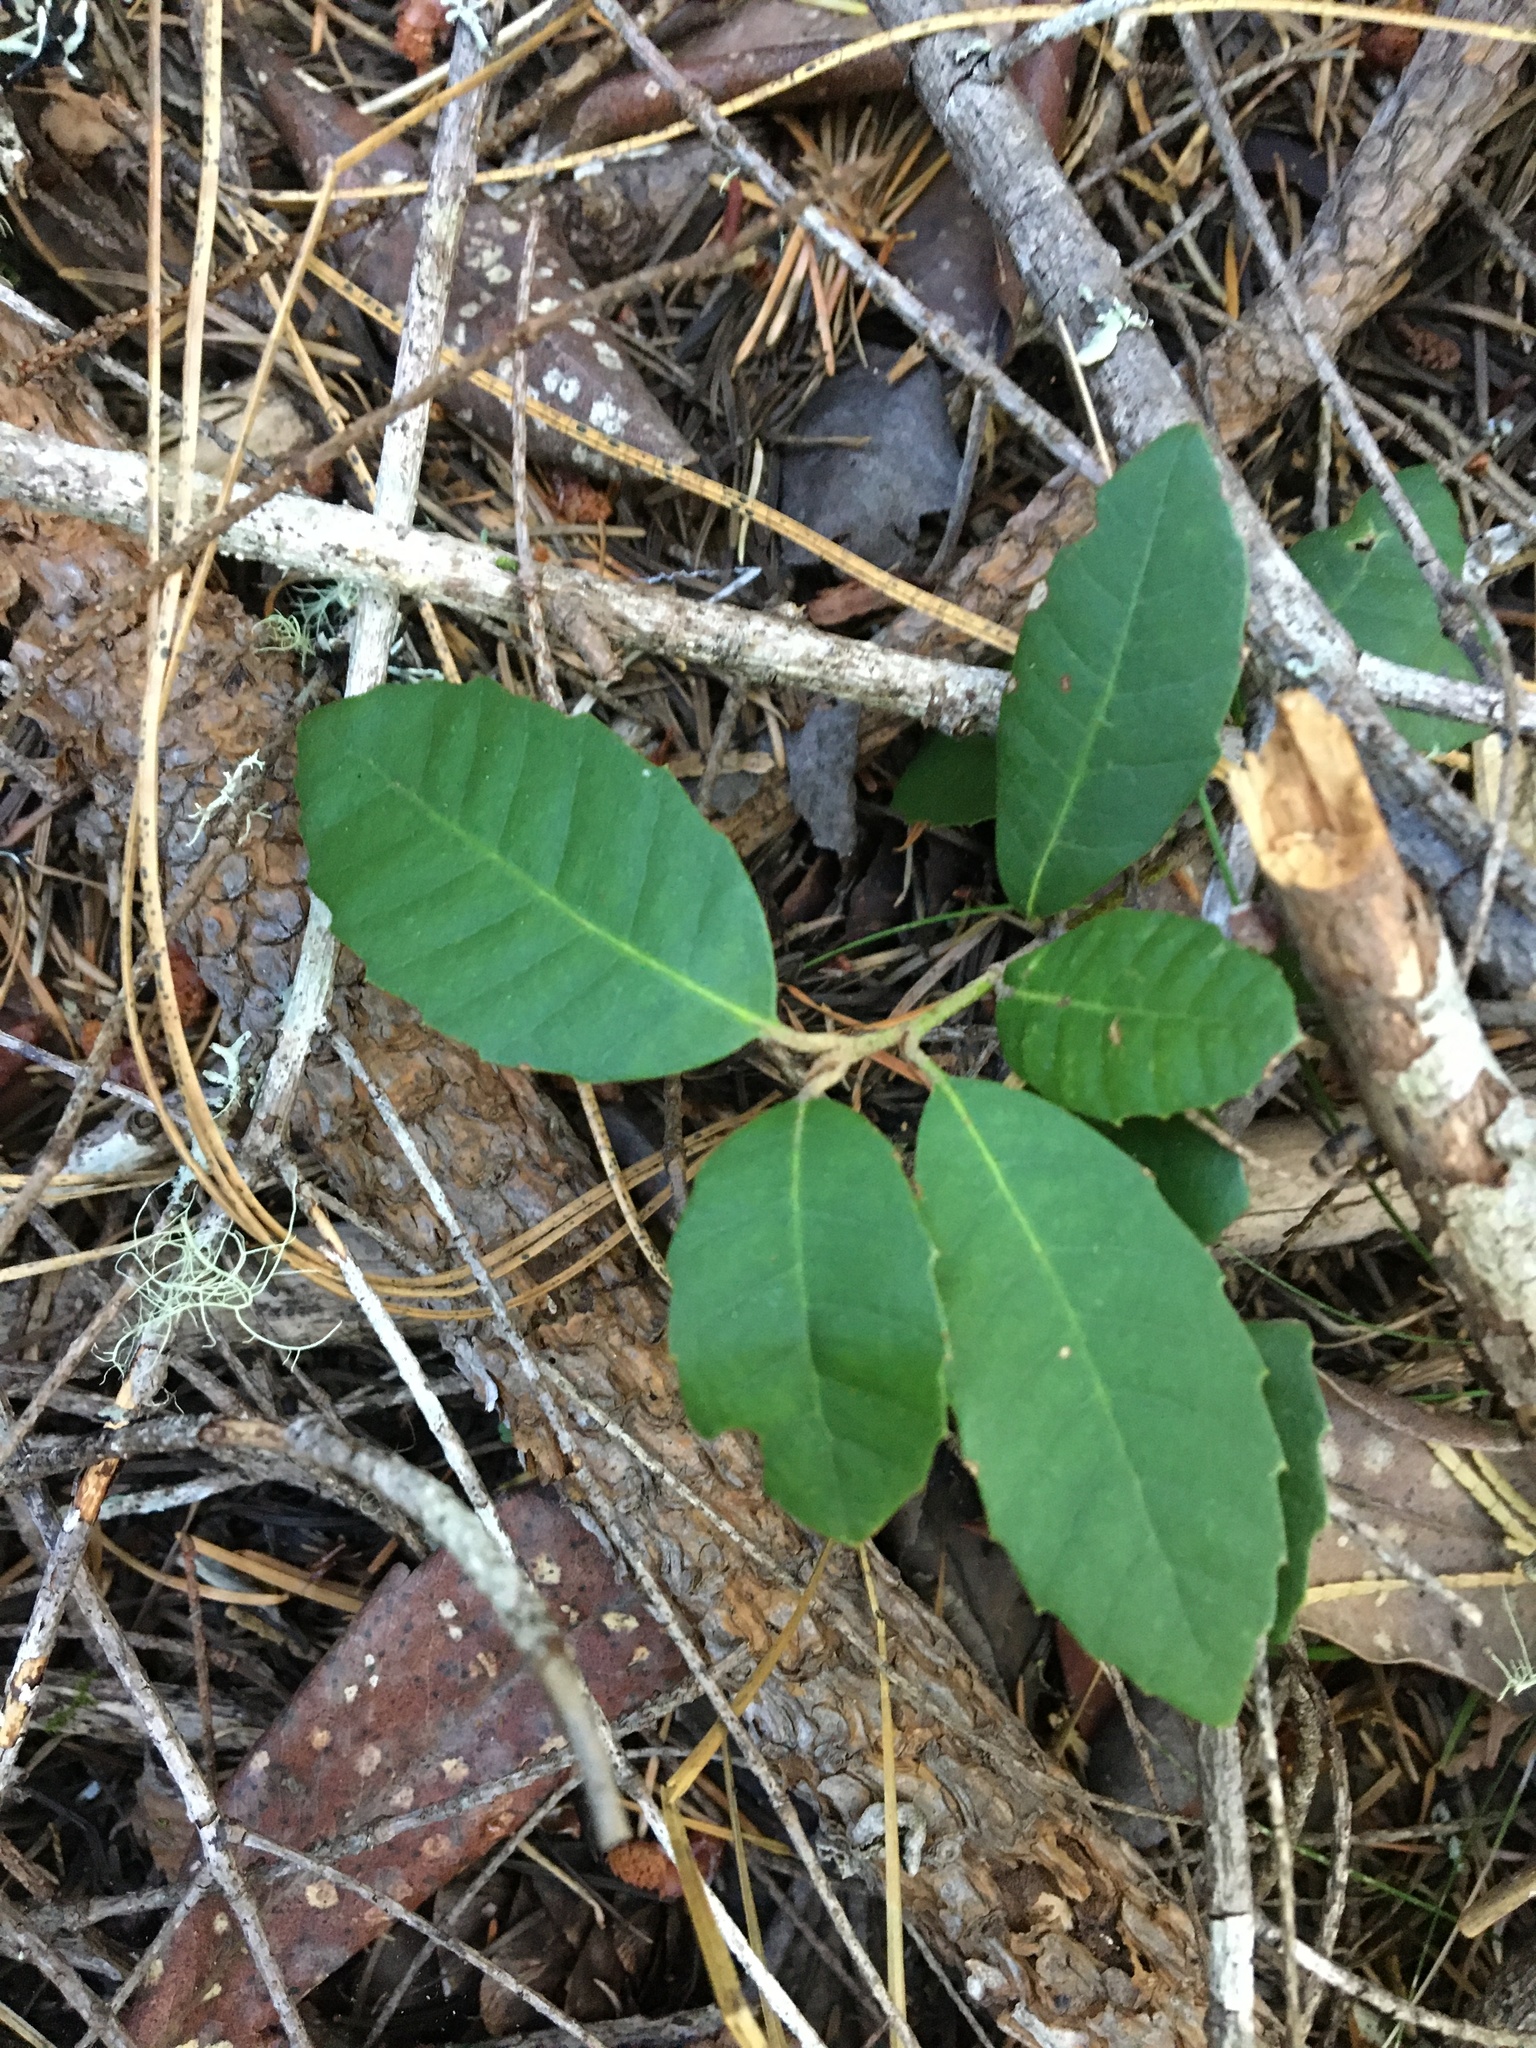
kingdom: Plantae
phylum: Tracheophyta
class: Magnoliopsida
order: Fagales
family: Fagaceae
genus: Quercus
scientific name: Quercus chrysolepis
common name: Canyon live oak
